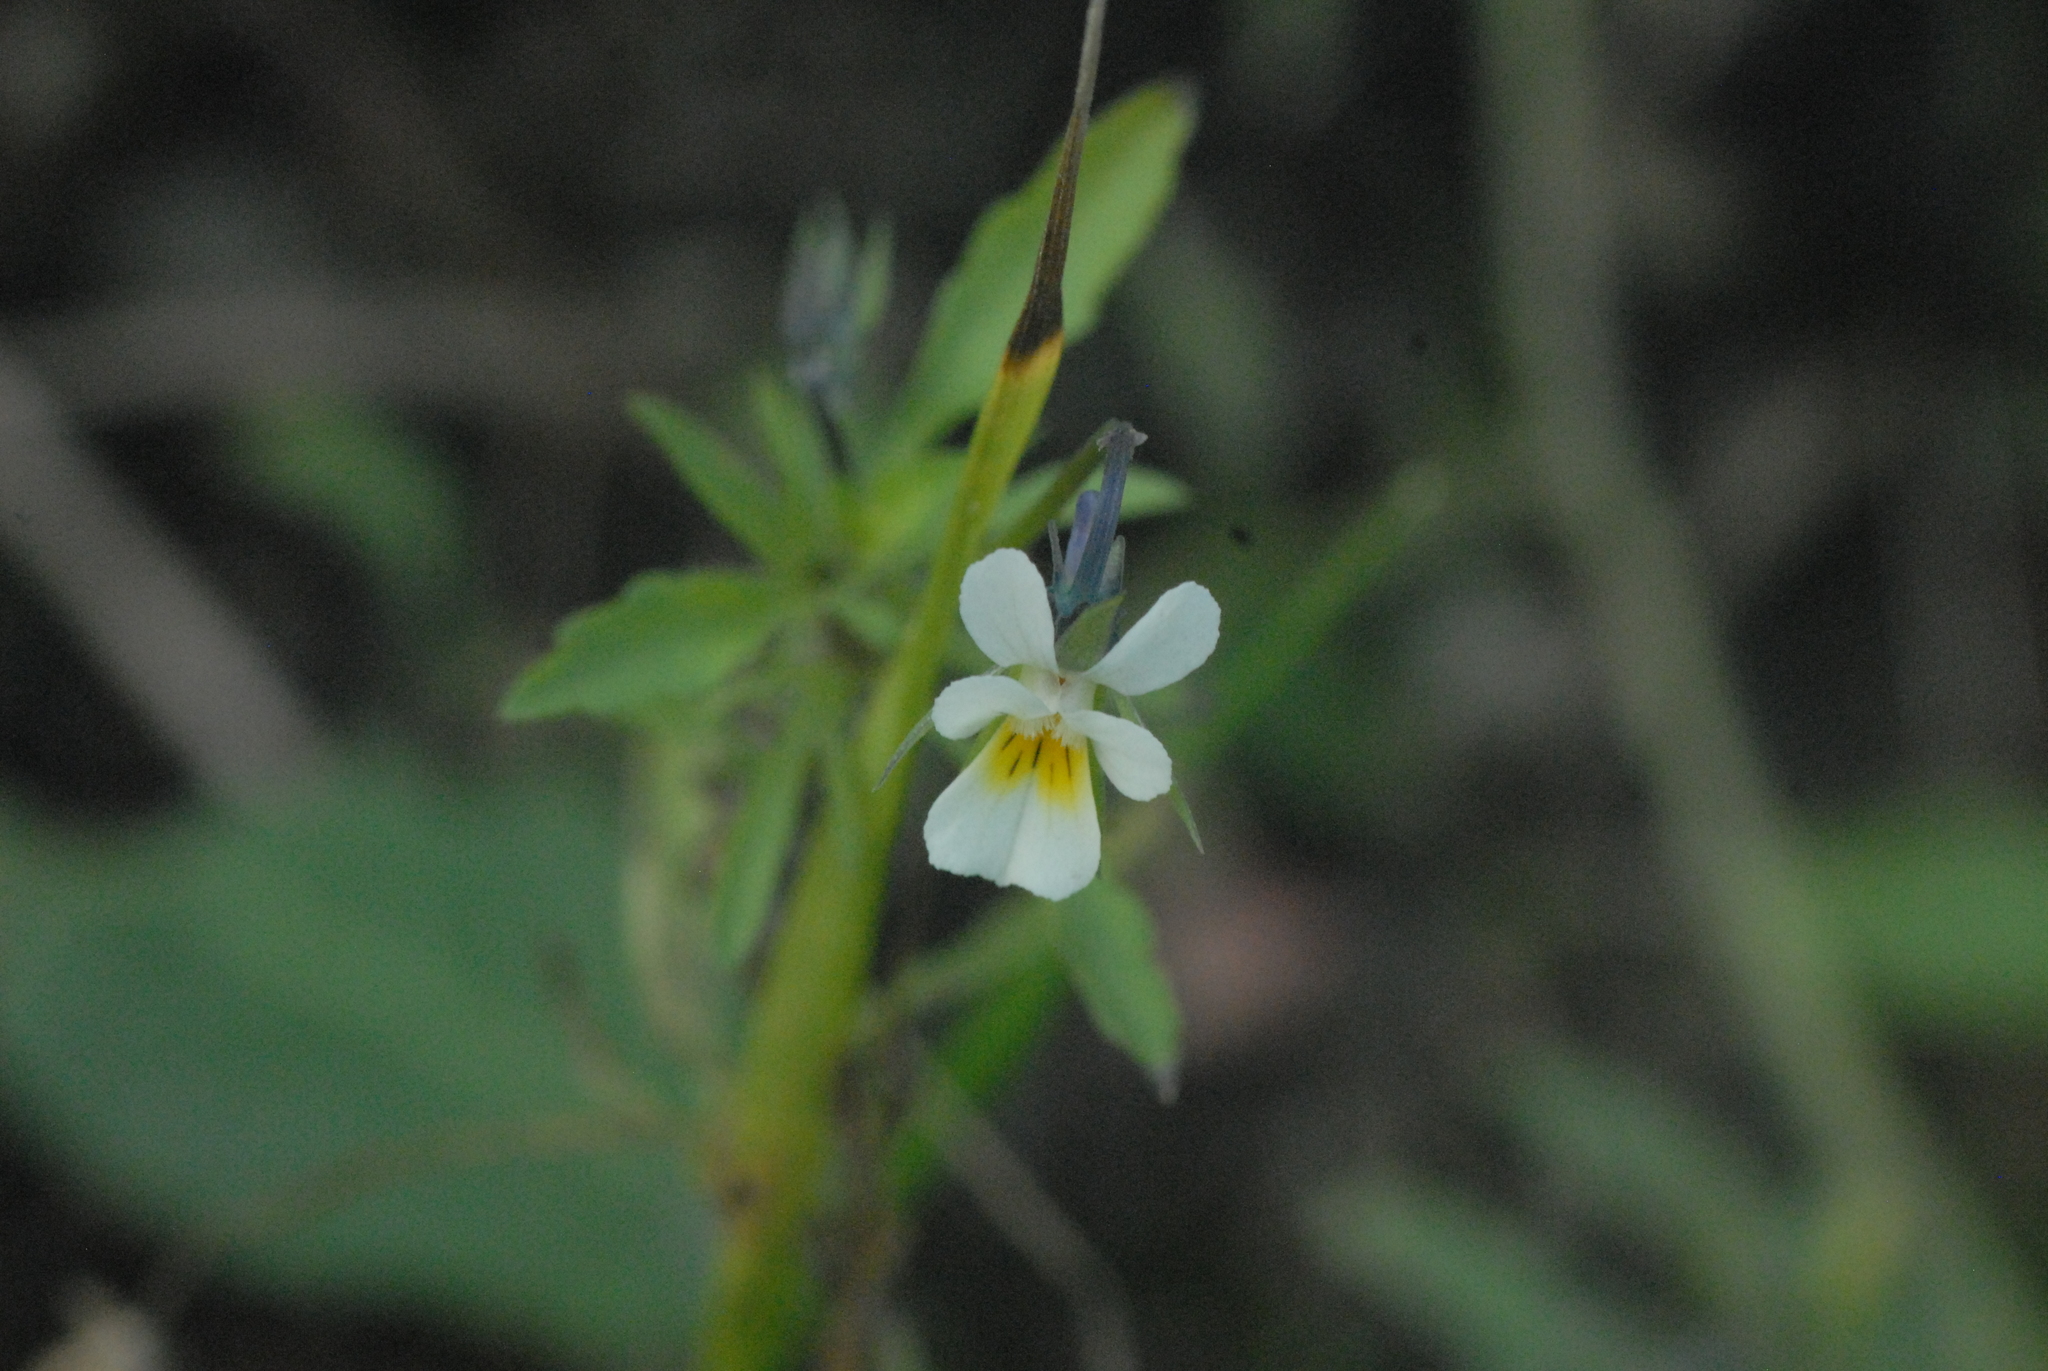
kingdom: Plantae
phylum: Tracheophyta
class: Magnoliopsida
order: Malpighiales
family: Violaceae
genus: Viola
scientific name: Viola arvensis
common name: Field pansy
